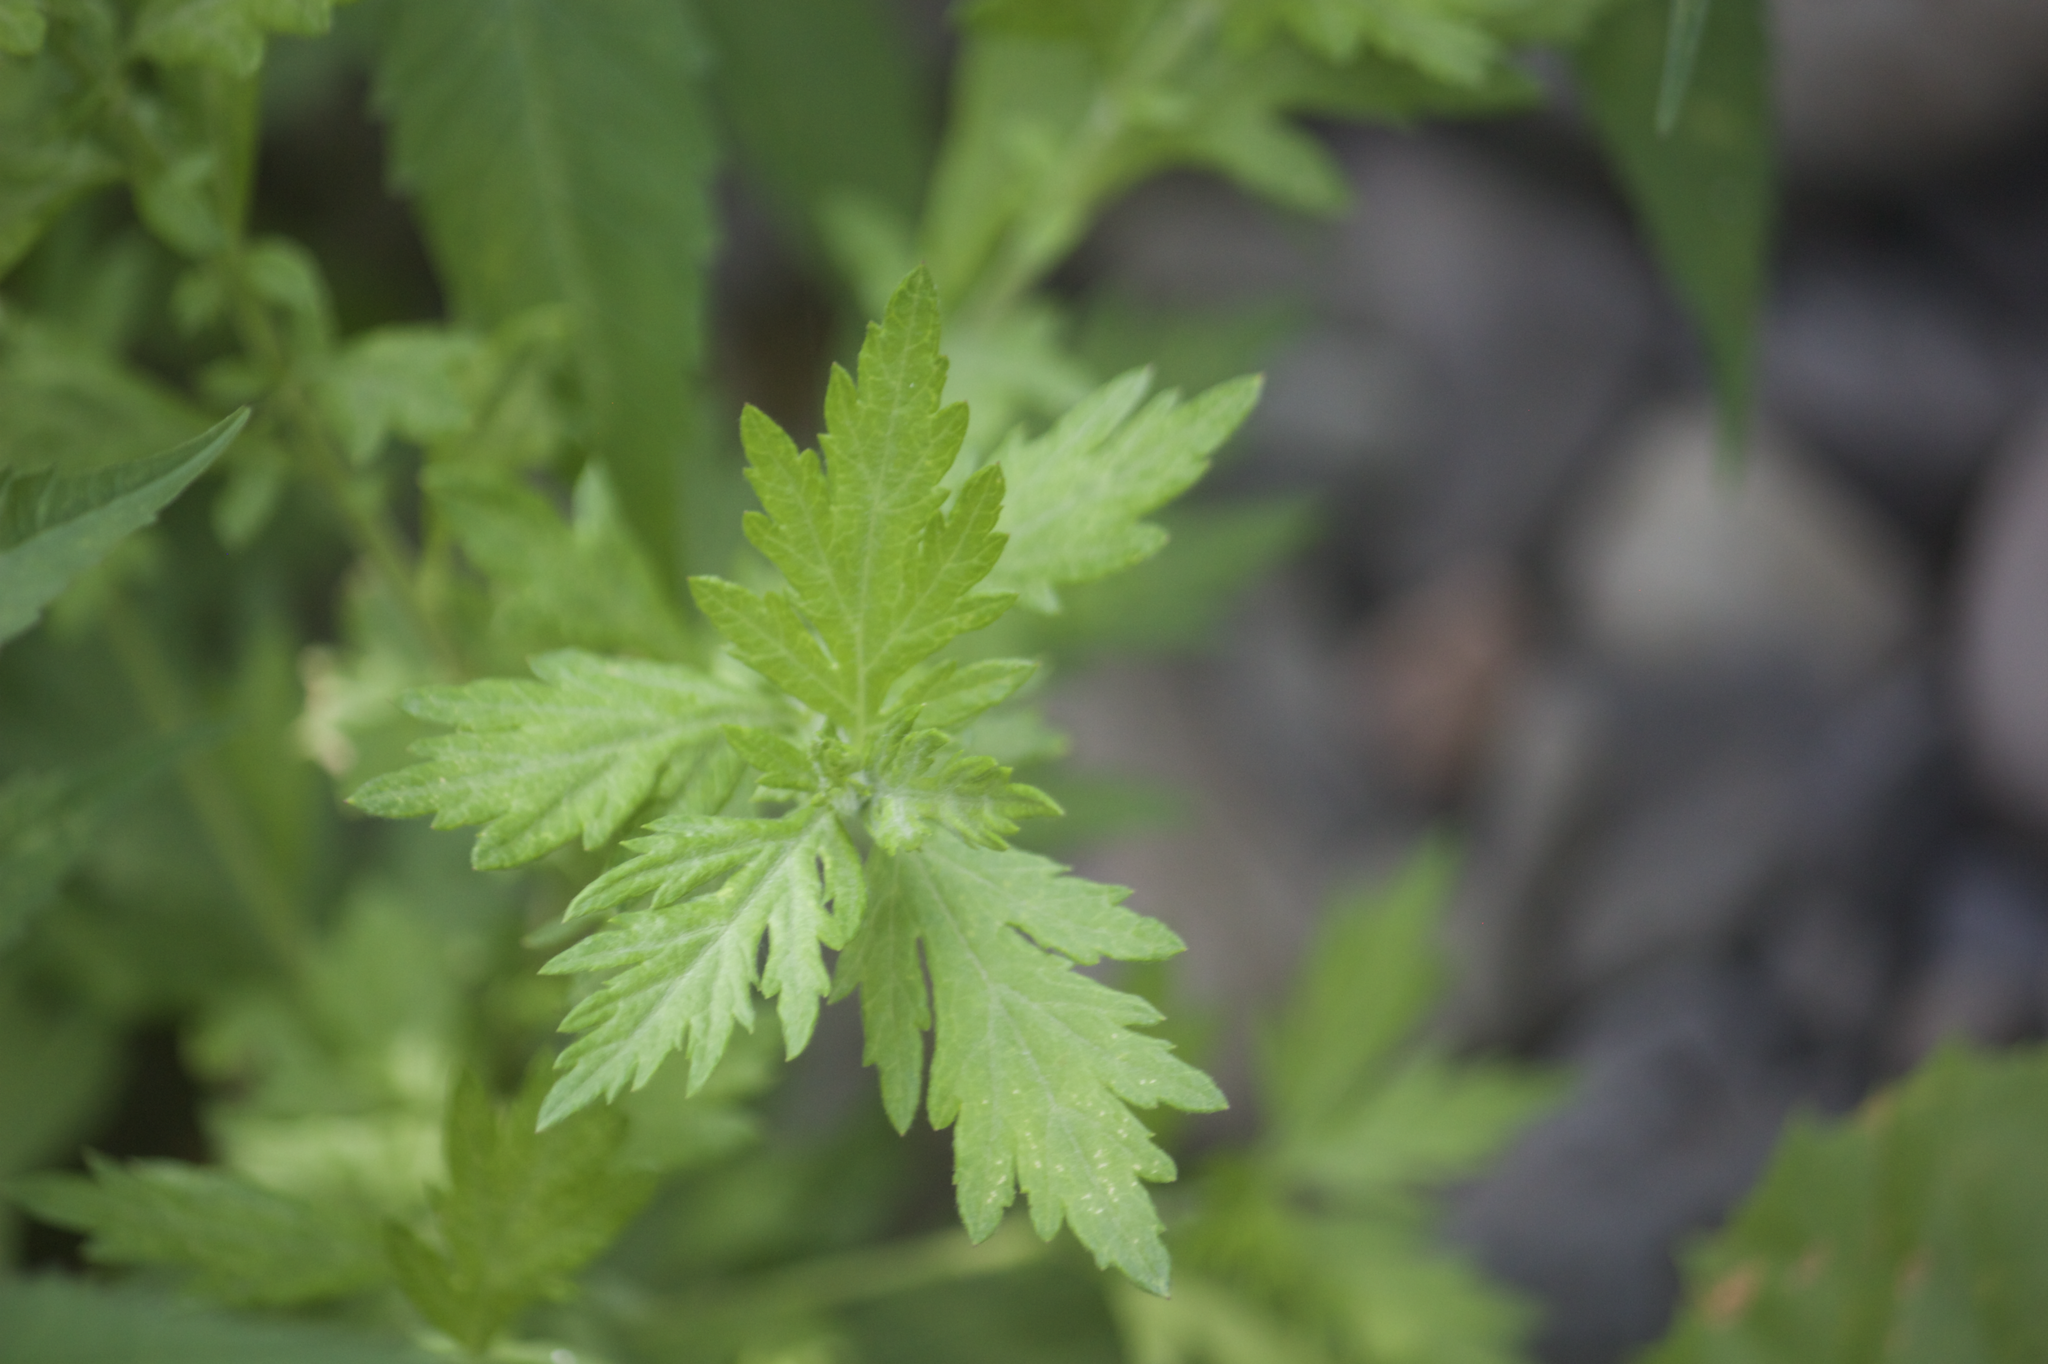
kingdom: Plantae
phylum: Tracheophyta
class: Magnoliopsida
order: Asterales
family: Asteraceae
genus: Artemisia
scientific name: Artemisia vulgaris
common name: Mugwort
